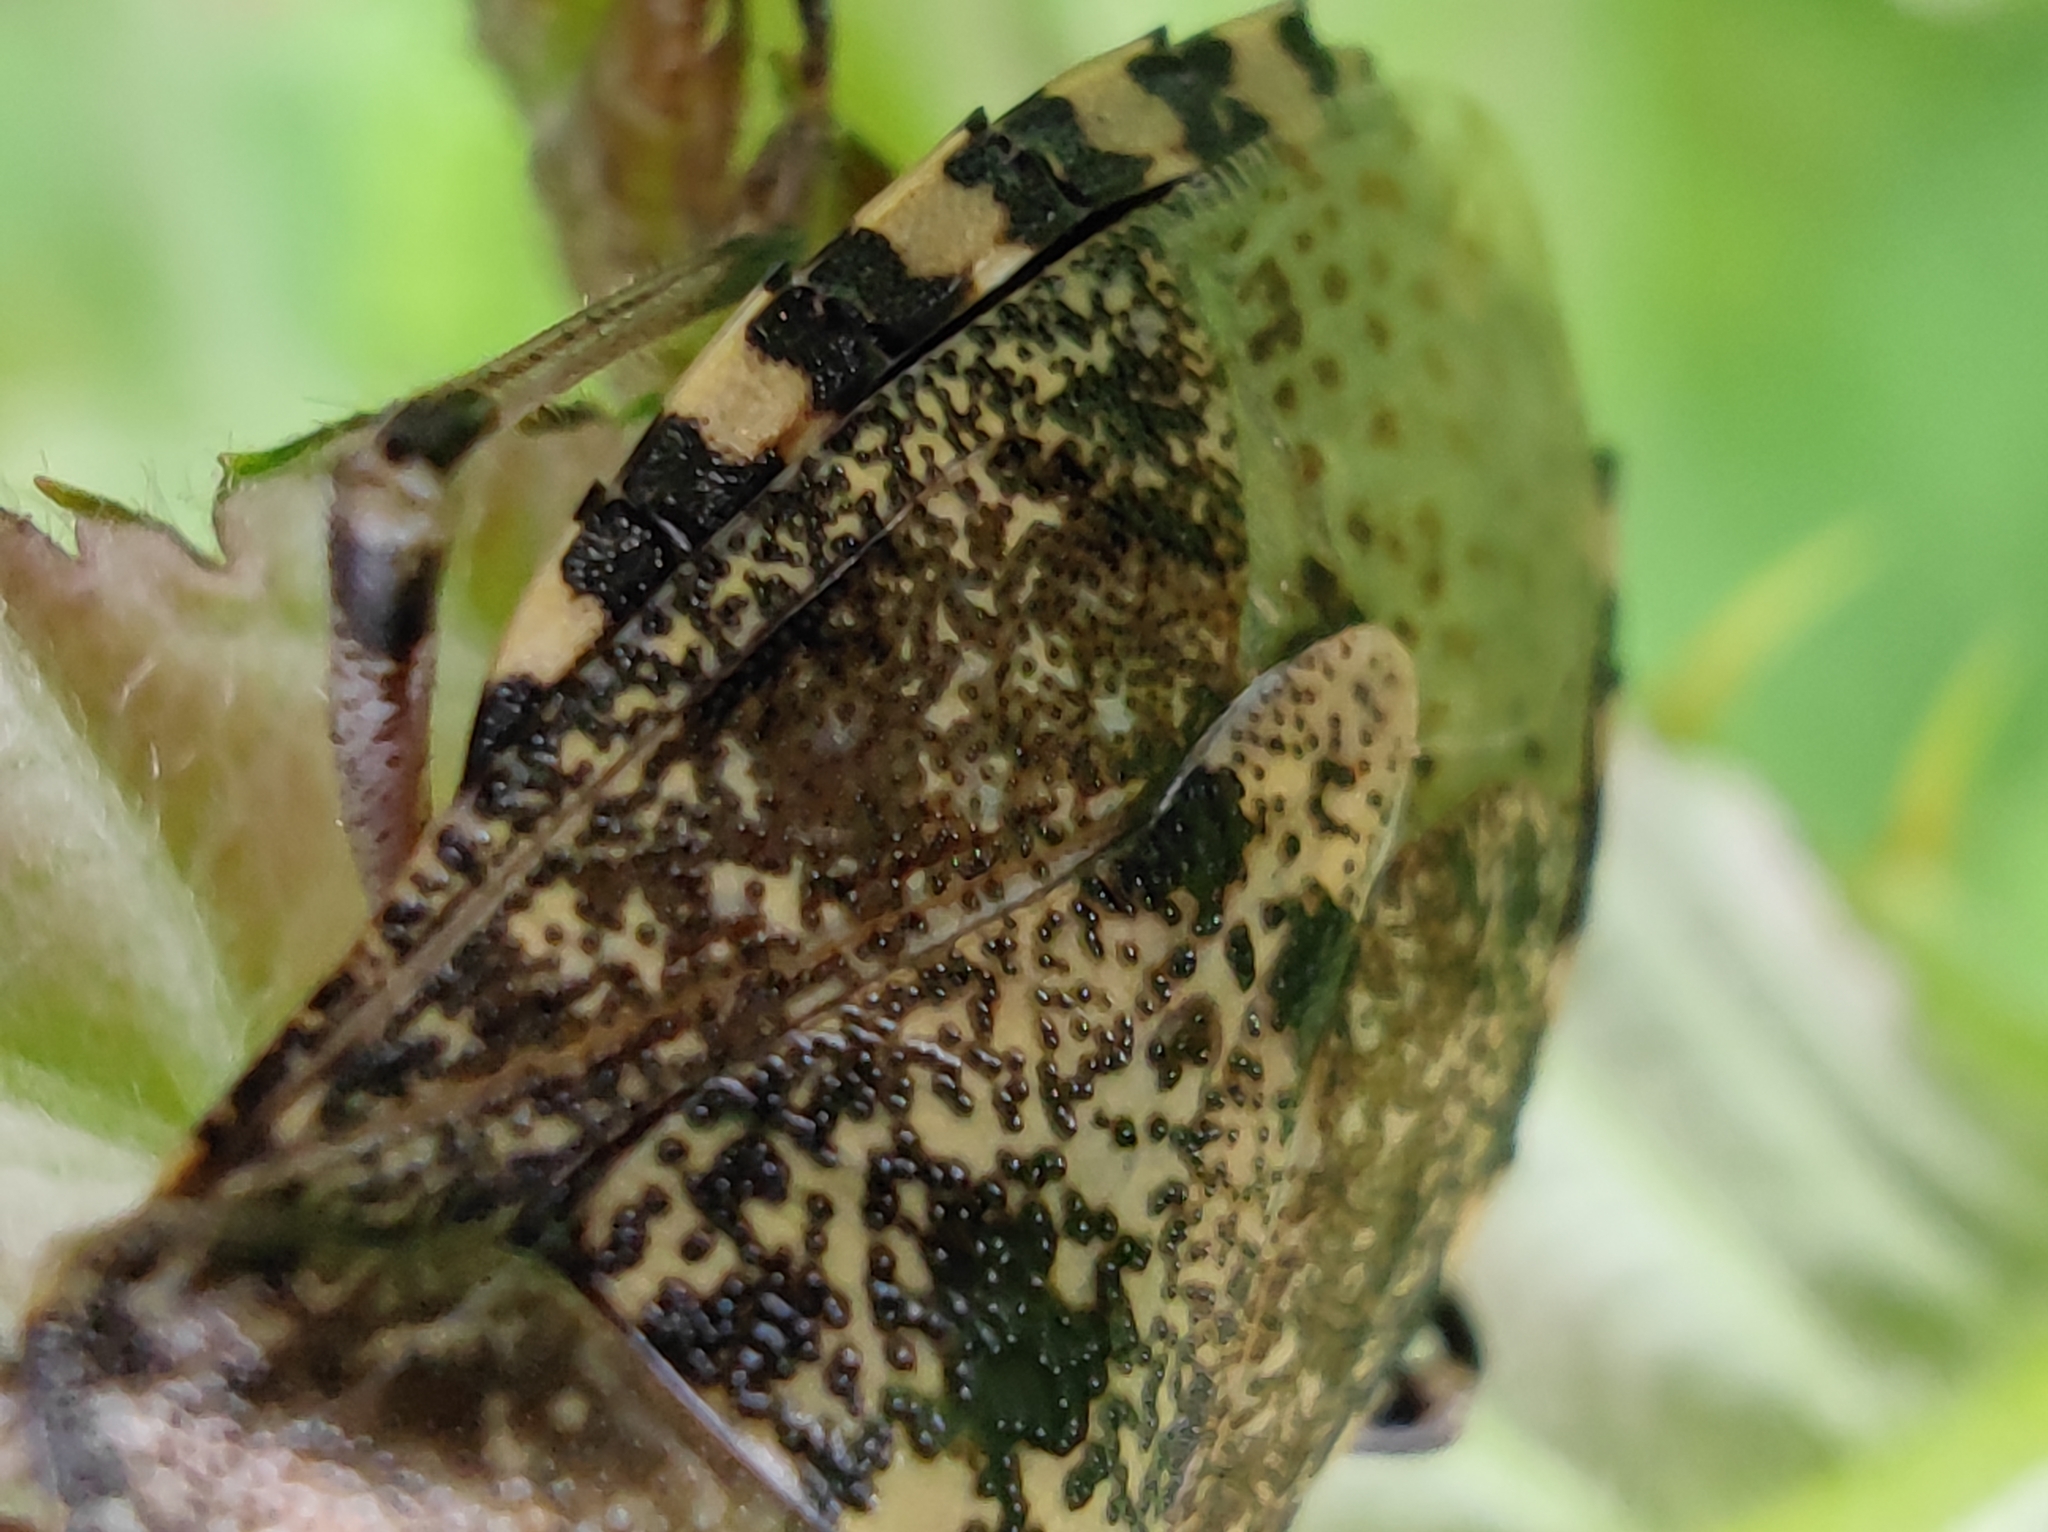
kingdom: Animalia
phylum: Arthropoda
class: Insecta
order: Hemiptera
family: Pentatomidae
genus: Rhaphigaster
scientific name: Rhaphigaster nebulosa
